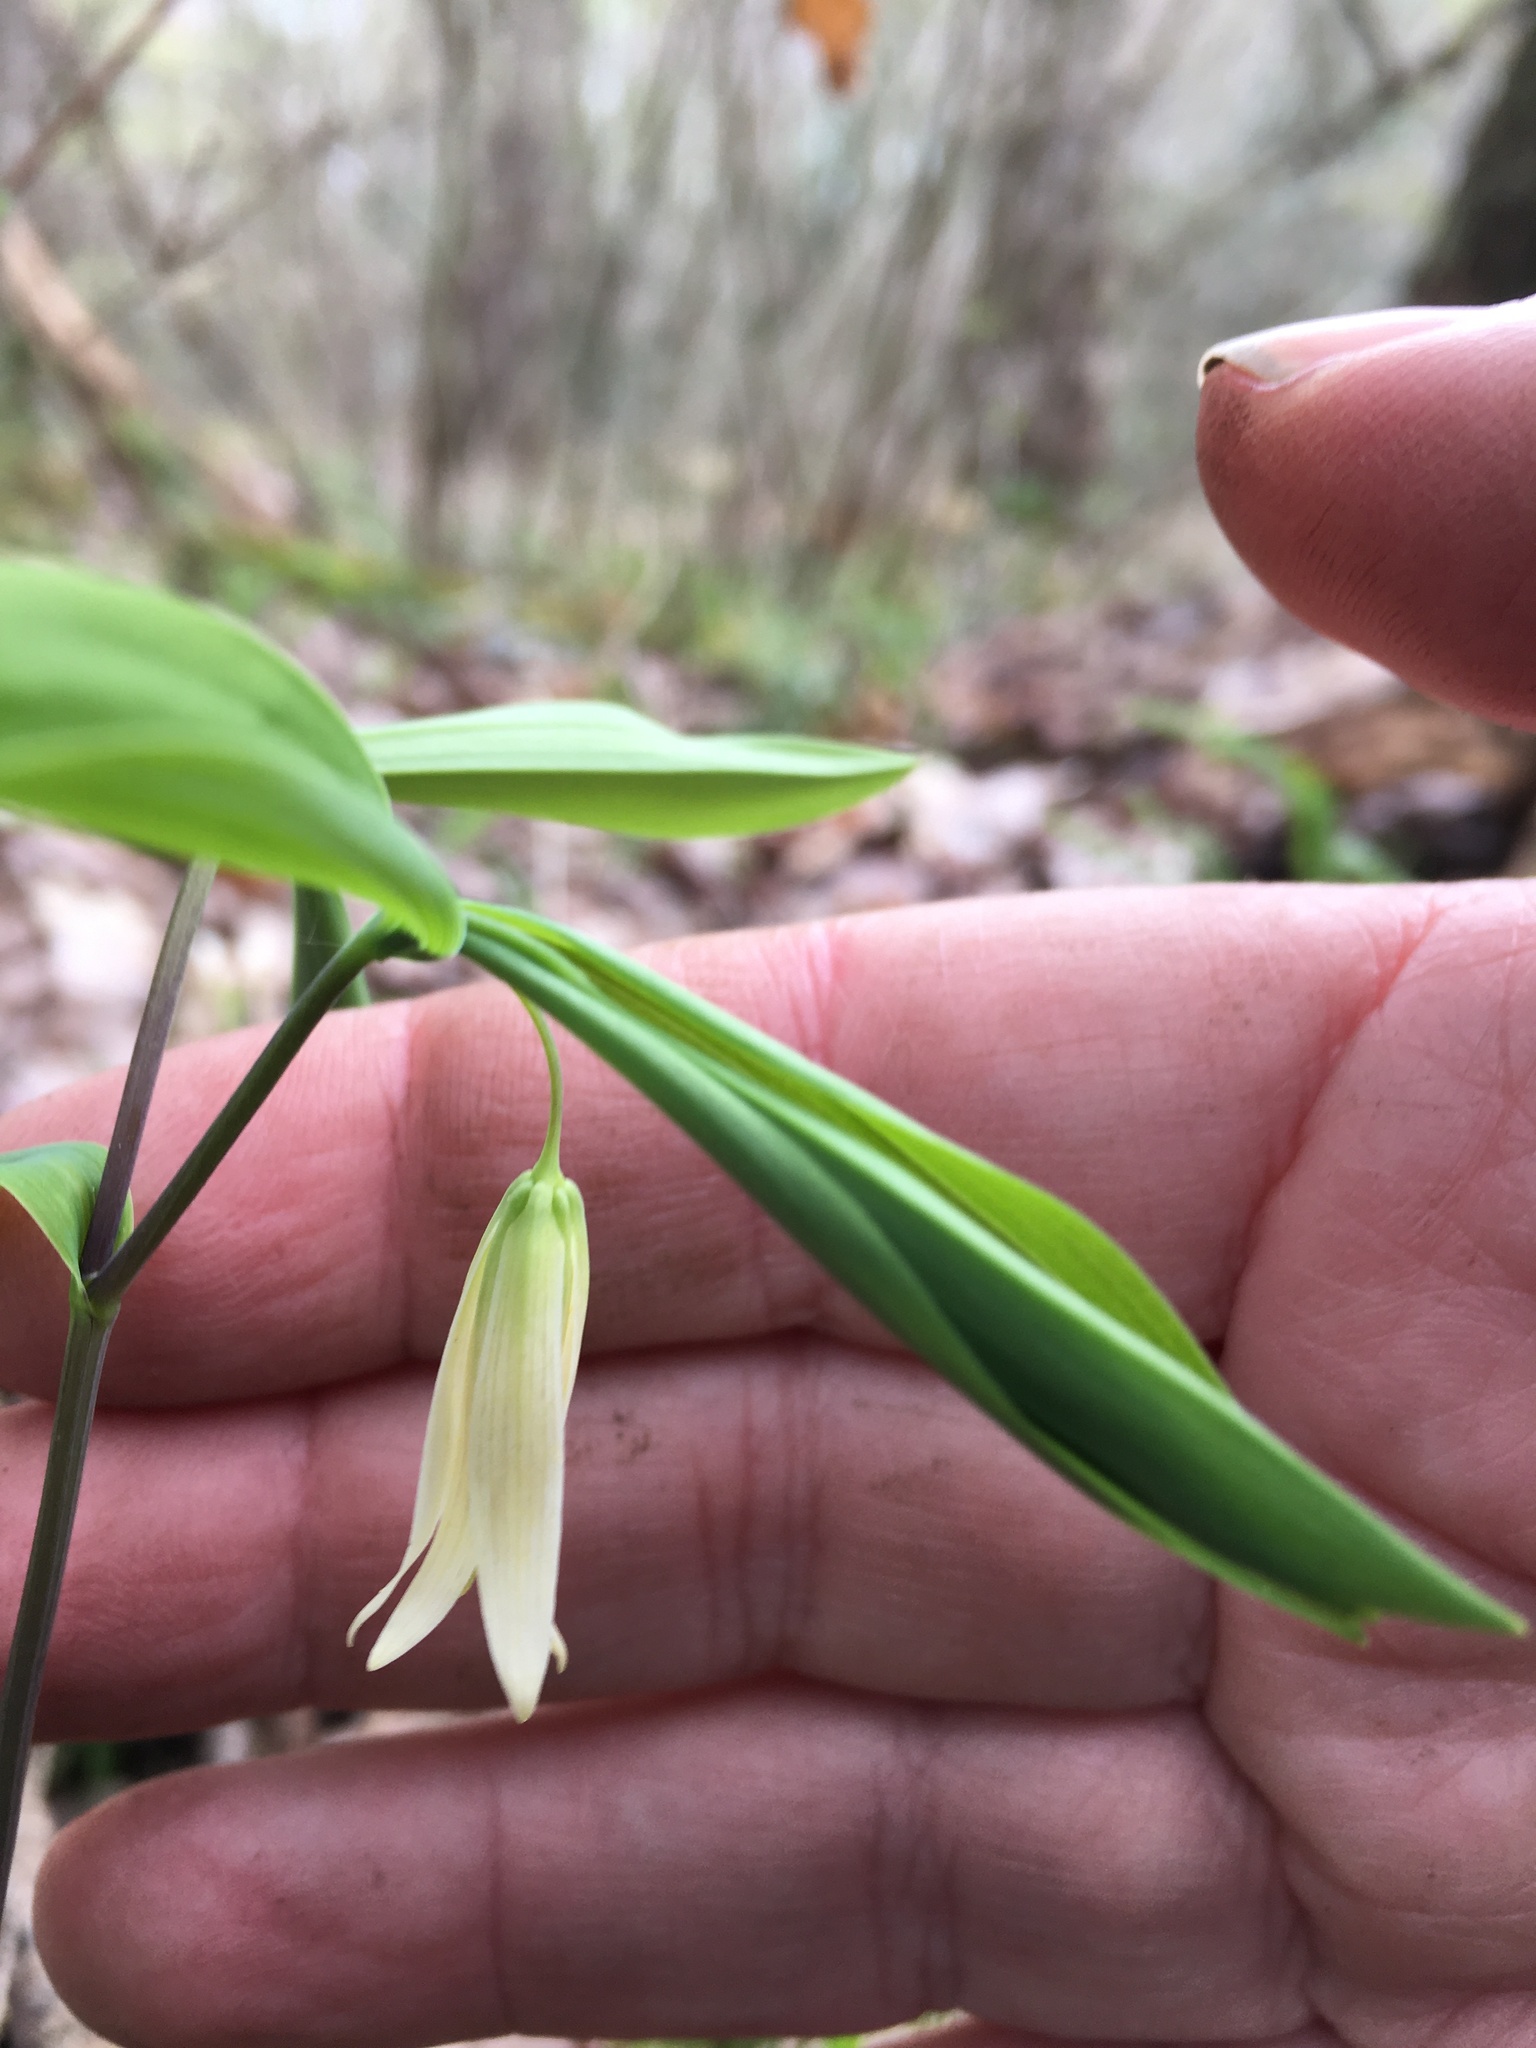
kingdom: Plantae
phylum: Tracheophyta
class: Liliopsida
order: Liliales
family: Colchicaceae
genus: Uvularia
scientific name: Uvularia sessilifolia
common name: Straw-lily
